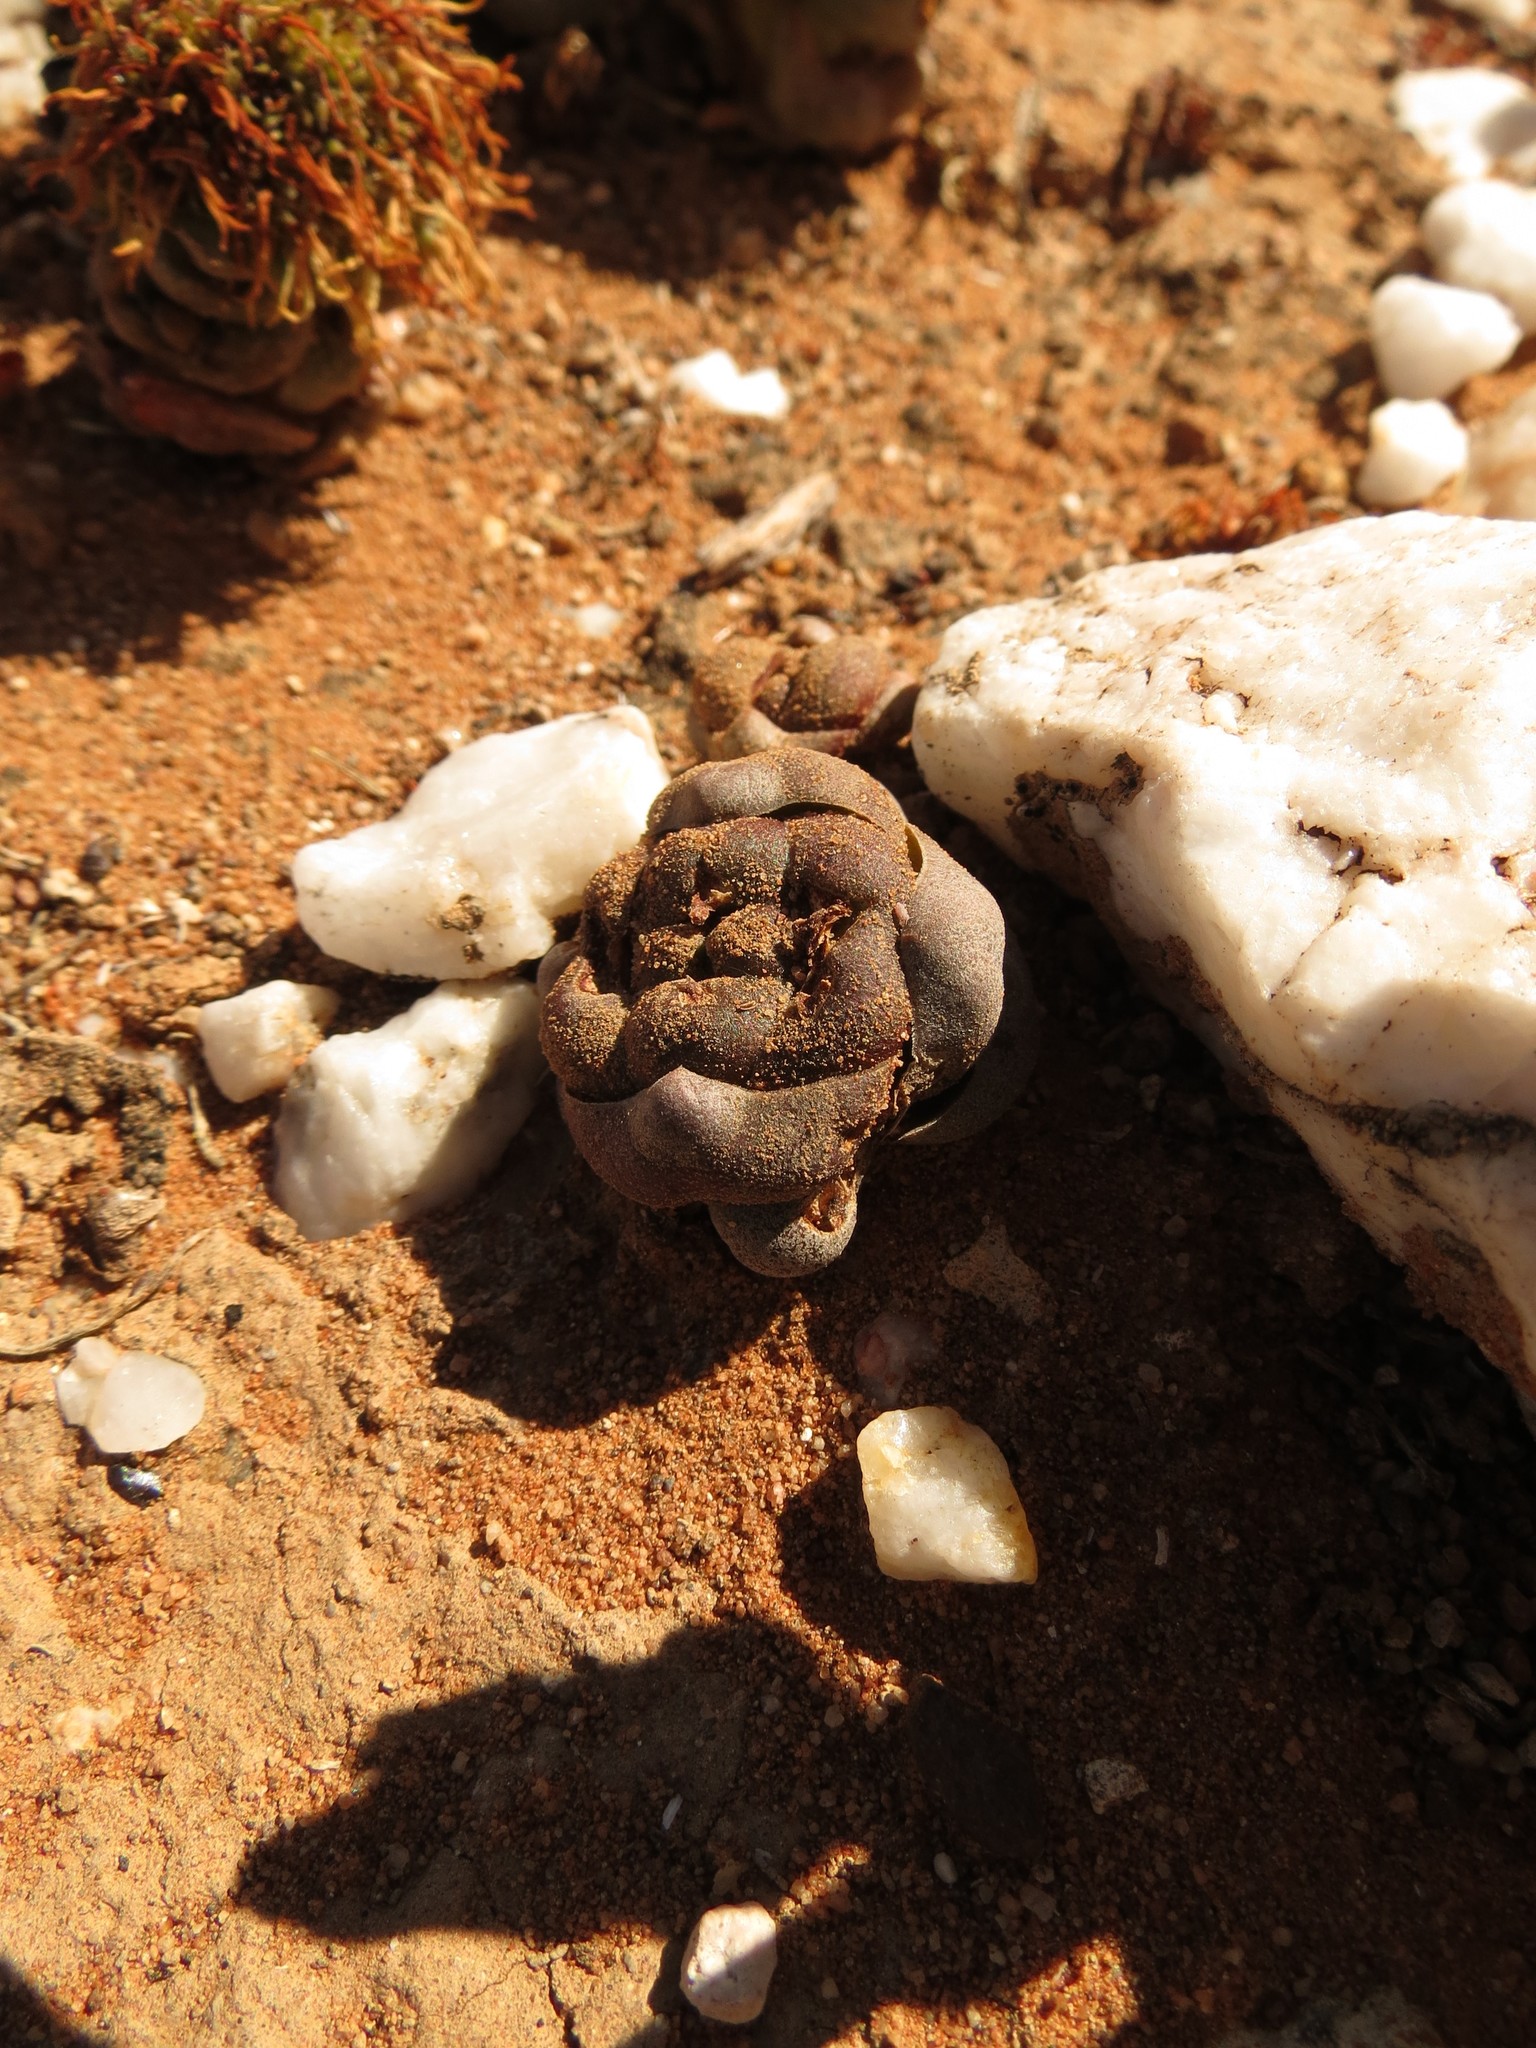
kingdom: Plantae
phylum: Tracheophyta
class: Magnoliopsida
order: Saxifragales
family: Crassulaceae
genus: Crassula
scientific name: Crassula columnaris
